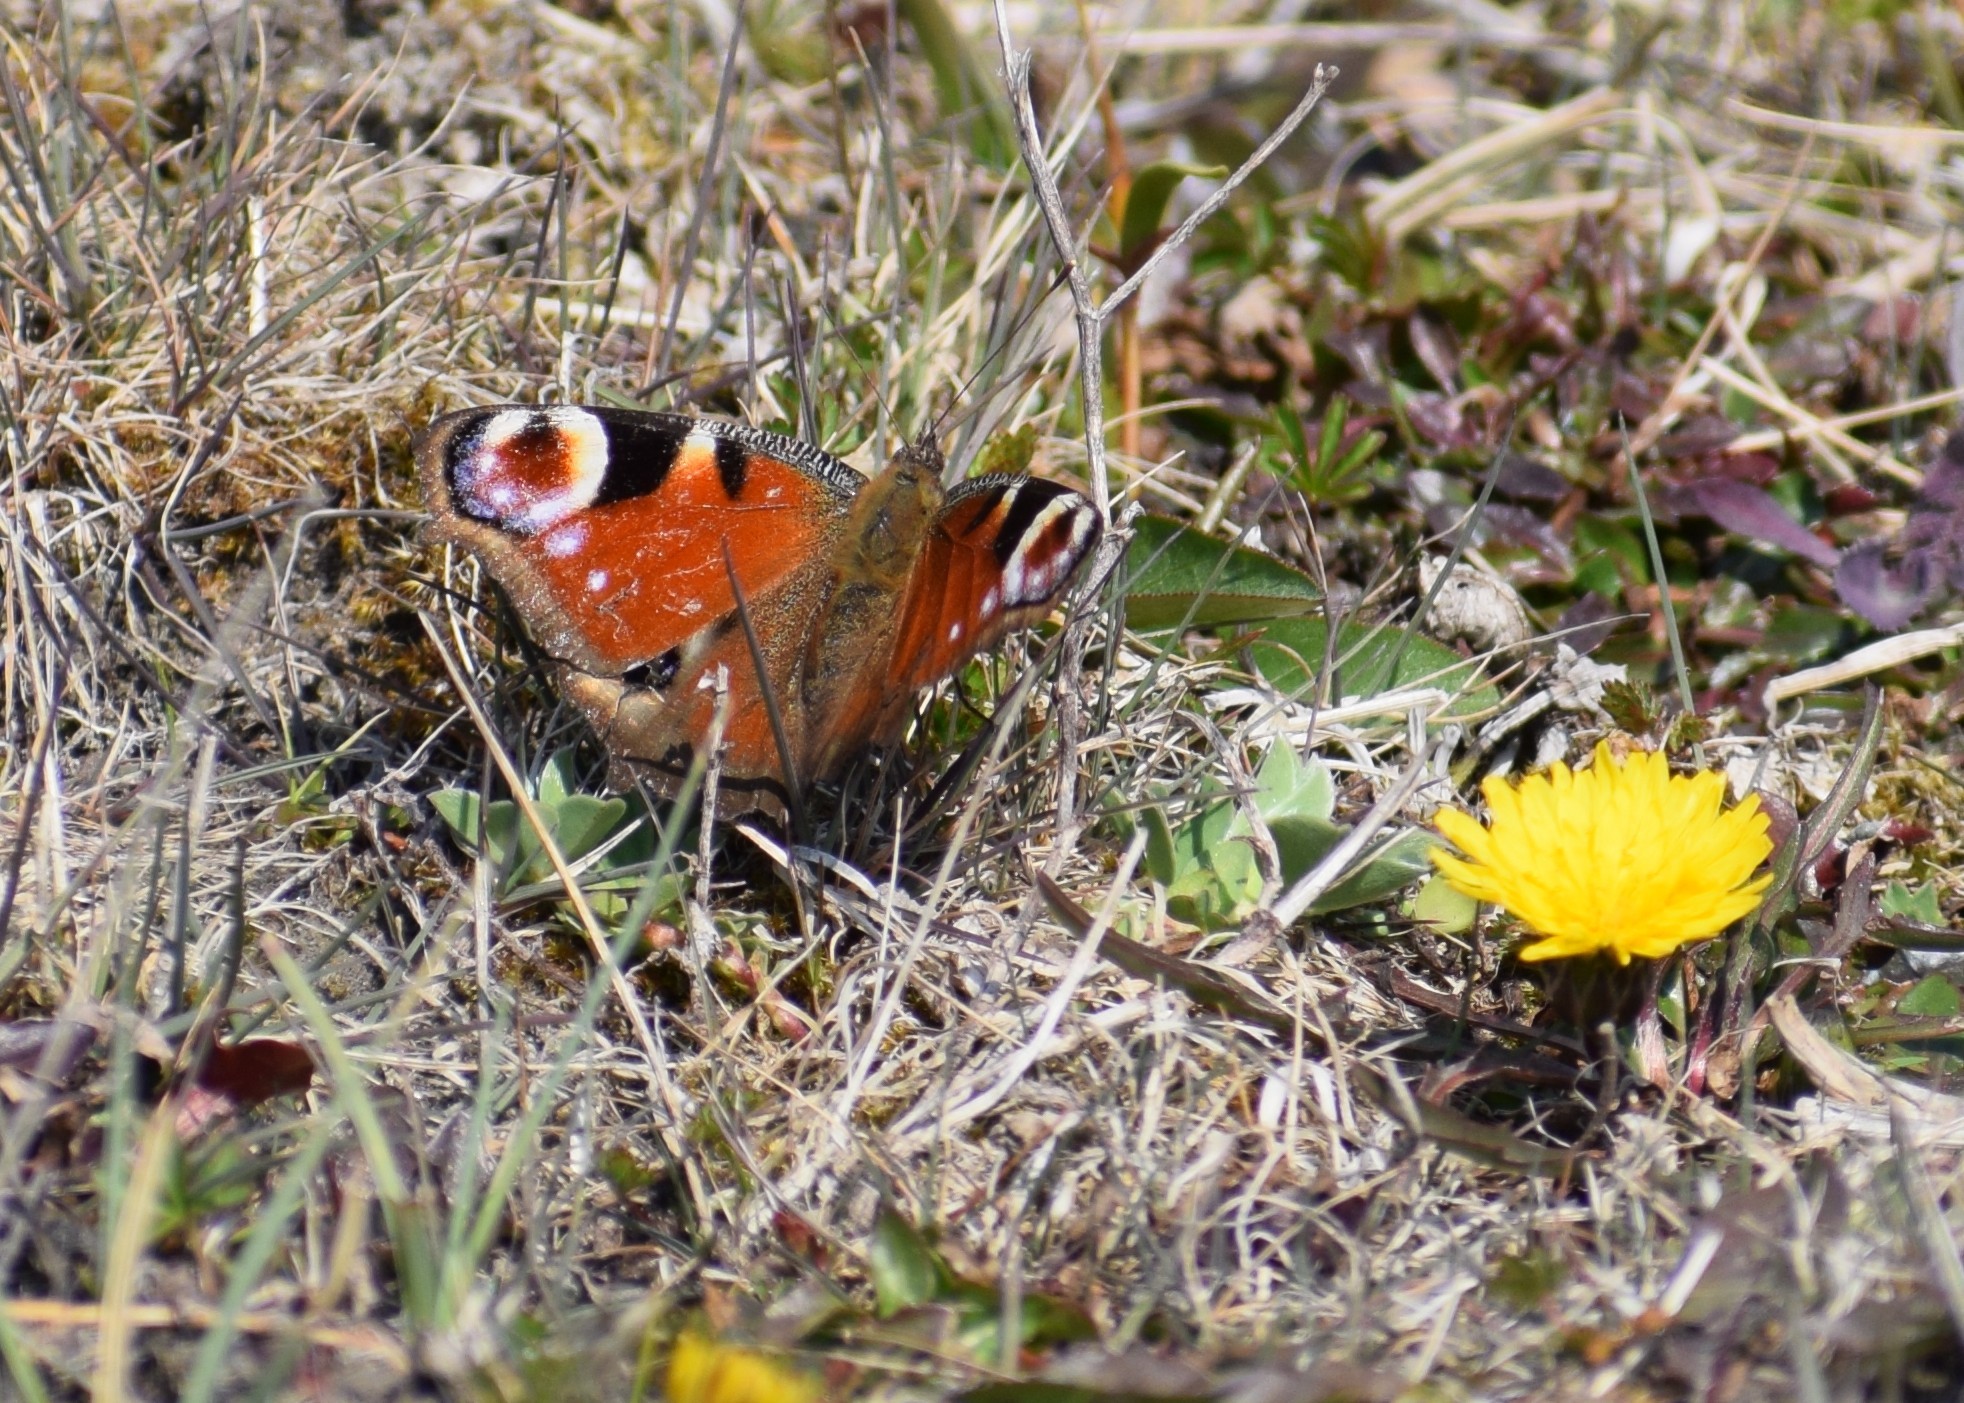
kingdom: Animalia
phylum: Arthropoda
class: Insecta
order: Lepidoptera
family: Nymphalidae
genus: Aglais
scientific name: Aglais io
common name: Peacock
